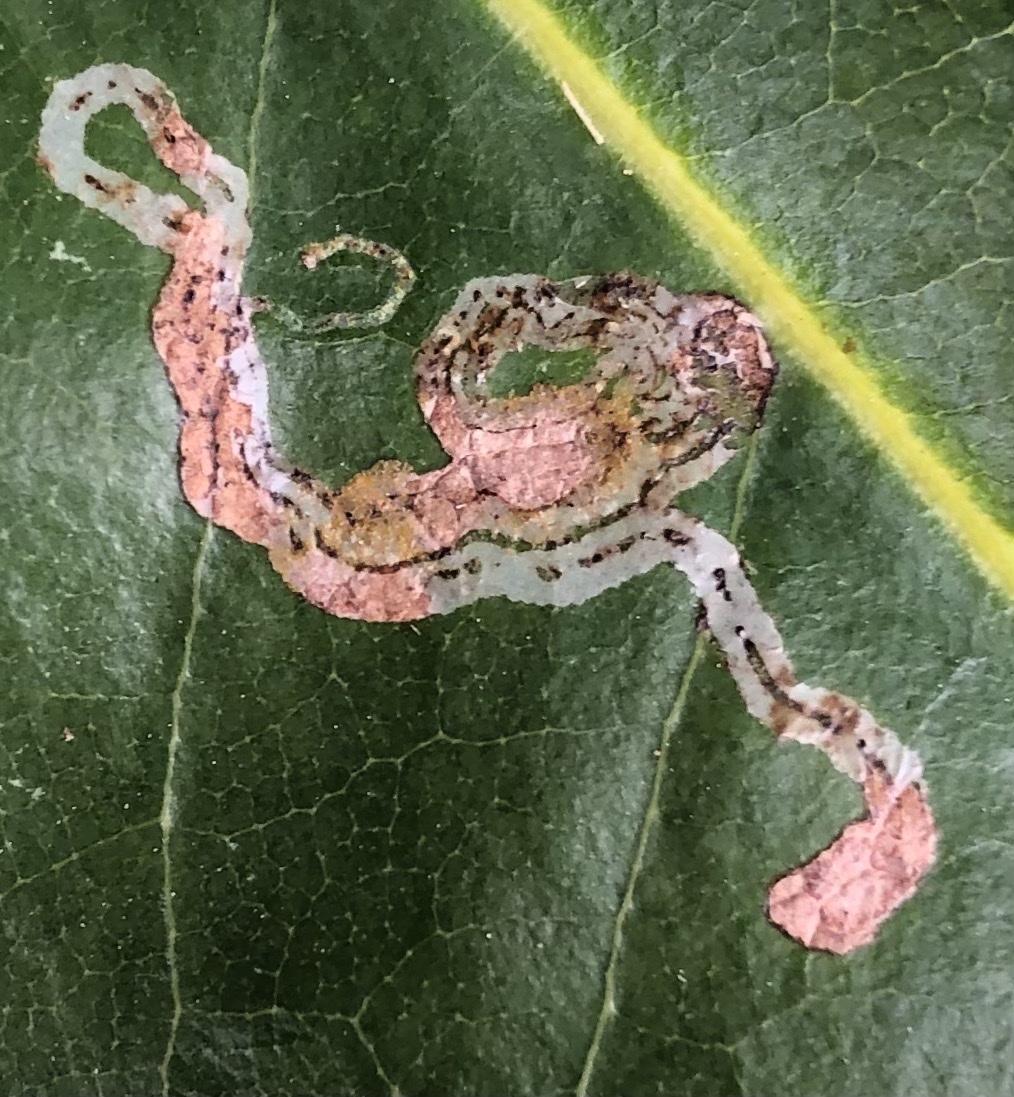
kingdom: Animalia
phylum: Arthropoda
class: Insecta
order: Lepidoptera
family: Gracillariidae
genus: Phyllocnistis
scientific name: Phyllocnistis liriodendronella
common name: Tulip tree leaf miner
